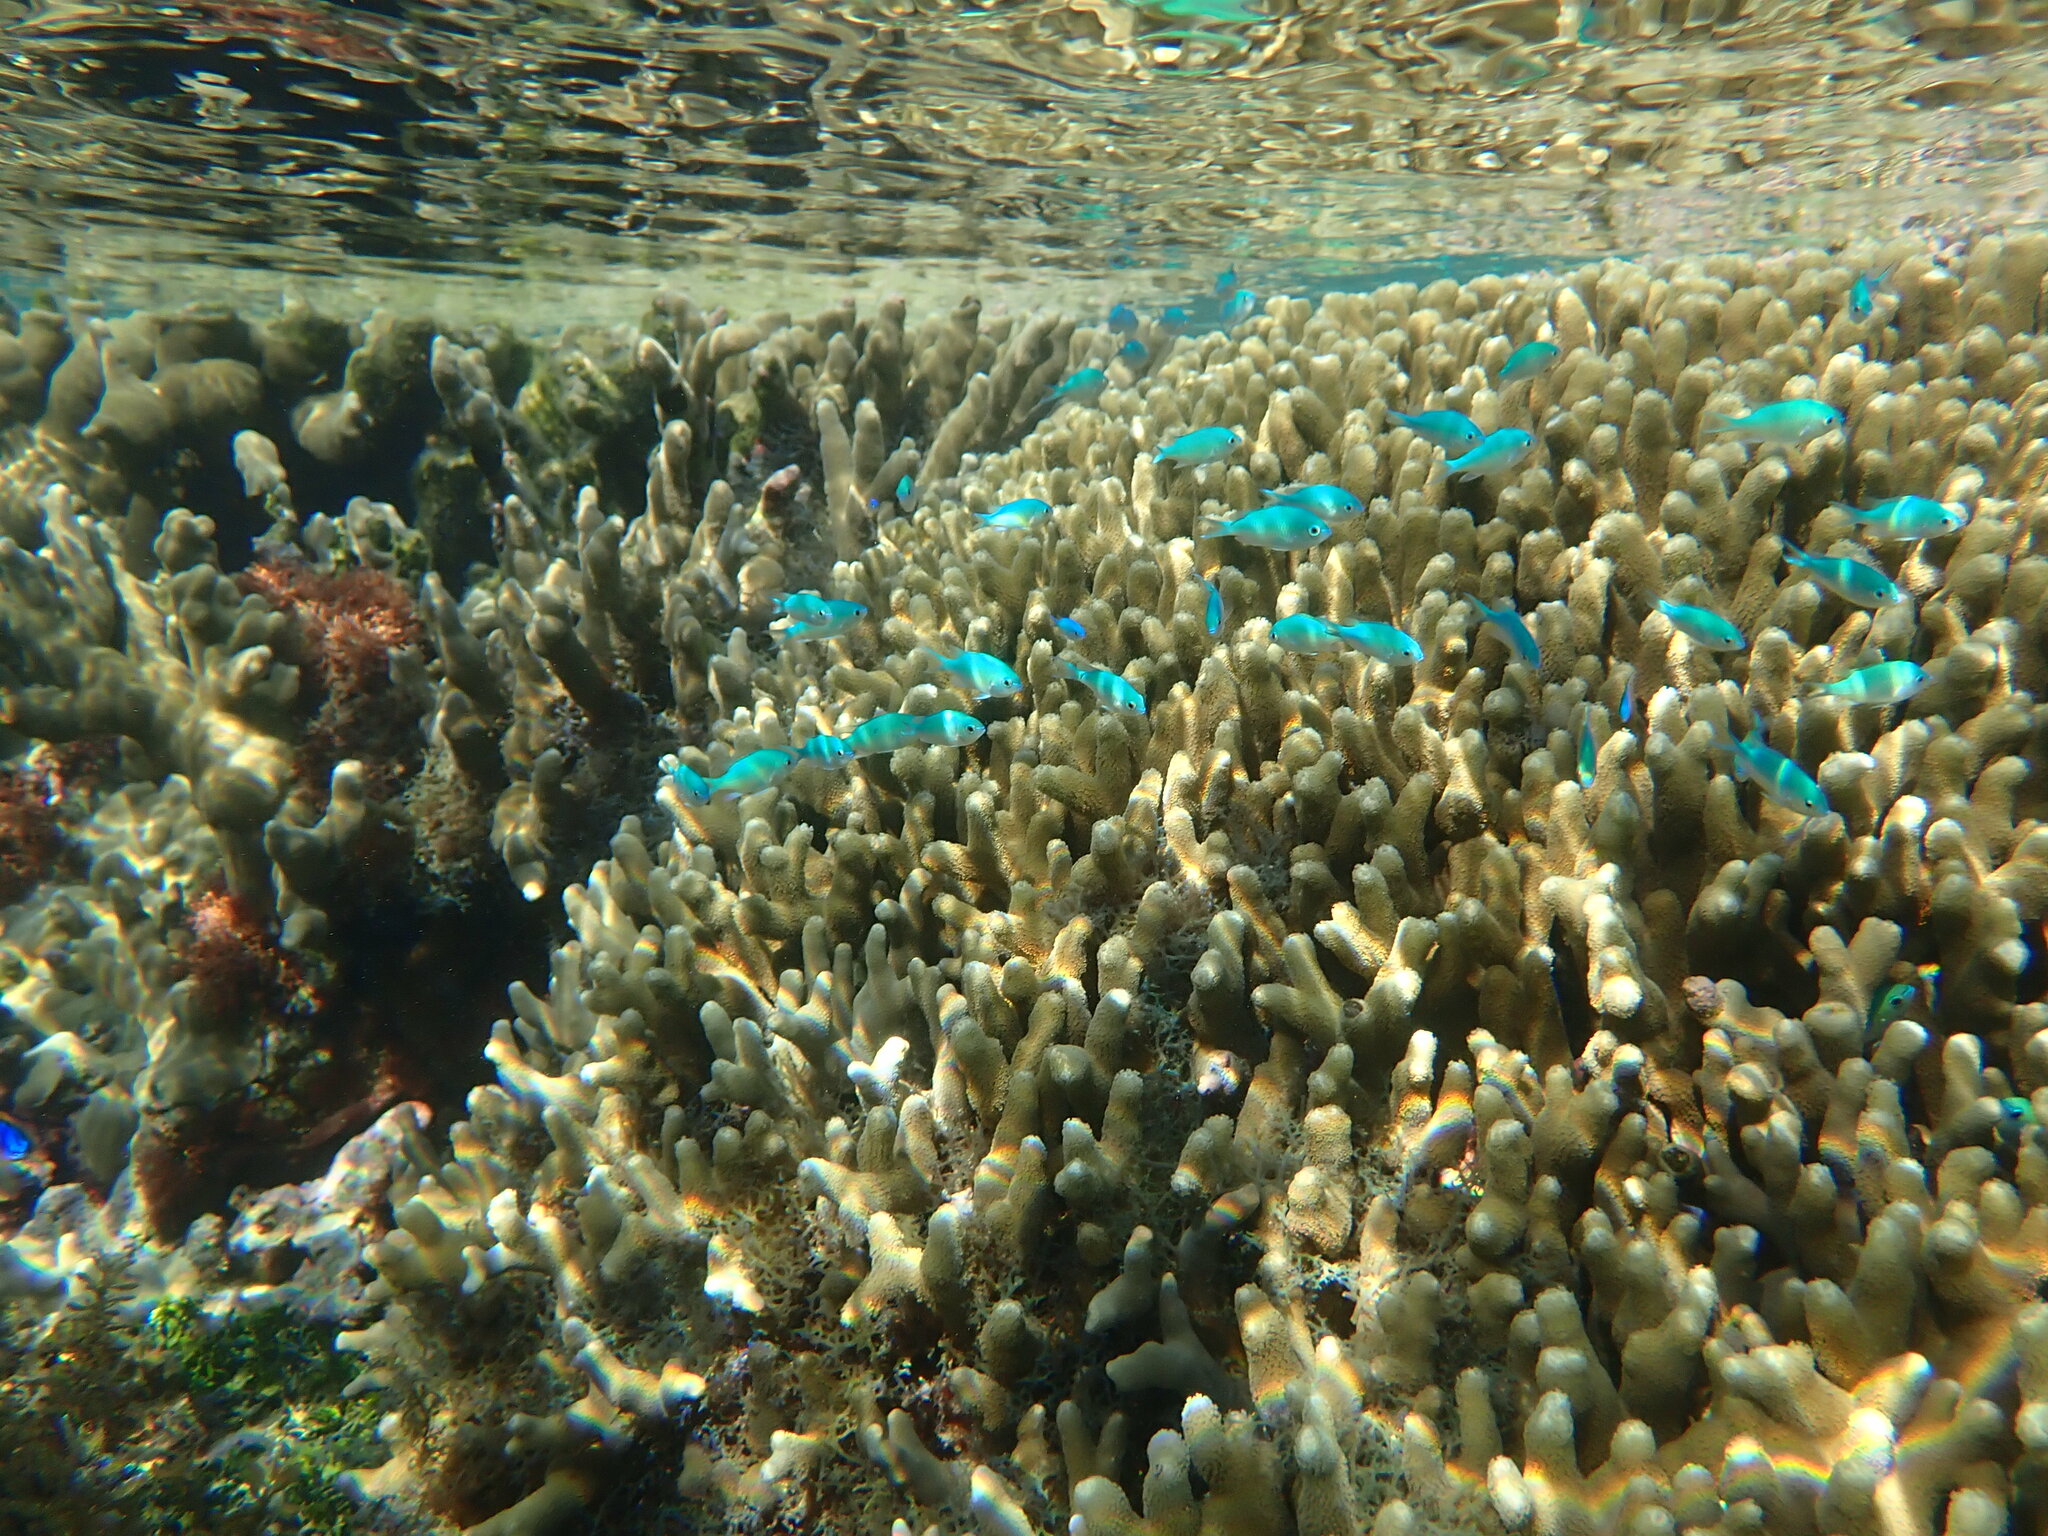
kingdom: Animalia
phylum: Chordata
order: Perciformes
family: Pomacentridae
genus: Chromis
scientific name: Chromis viridis
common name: Blue-green chromis
